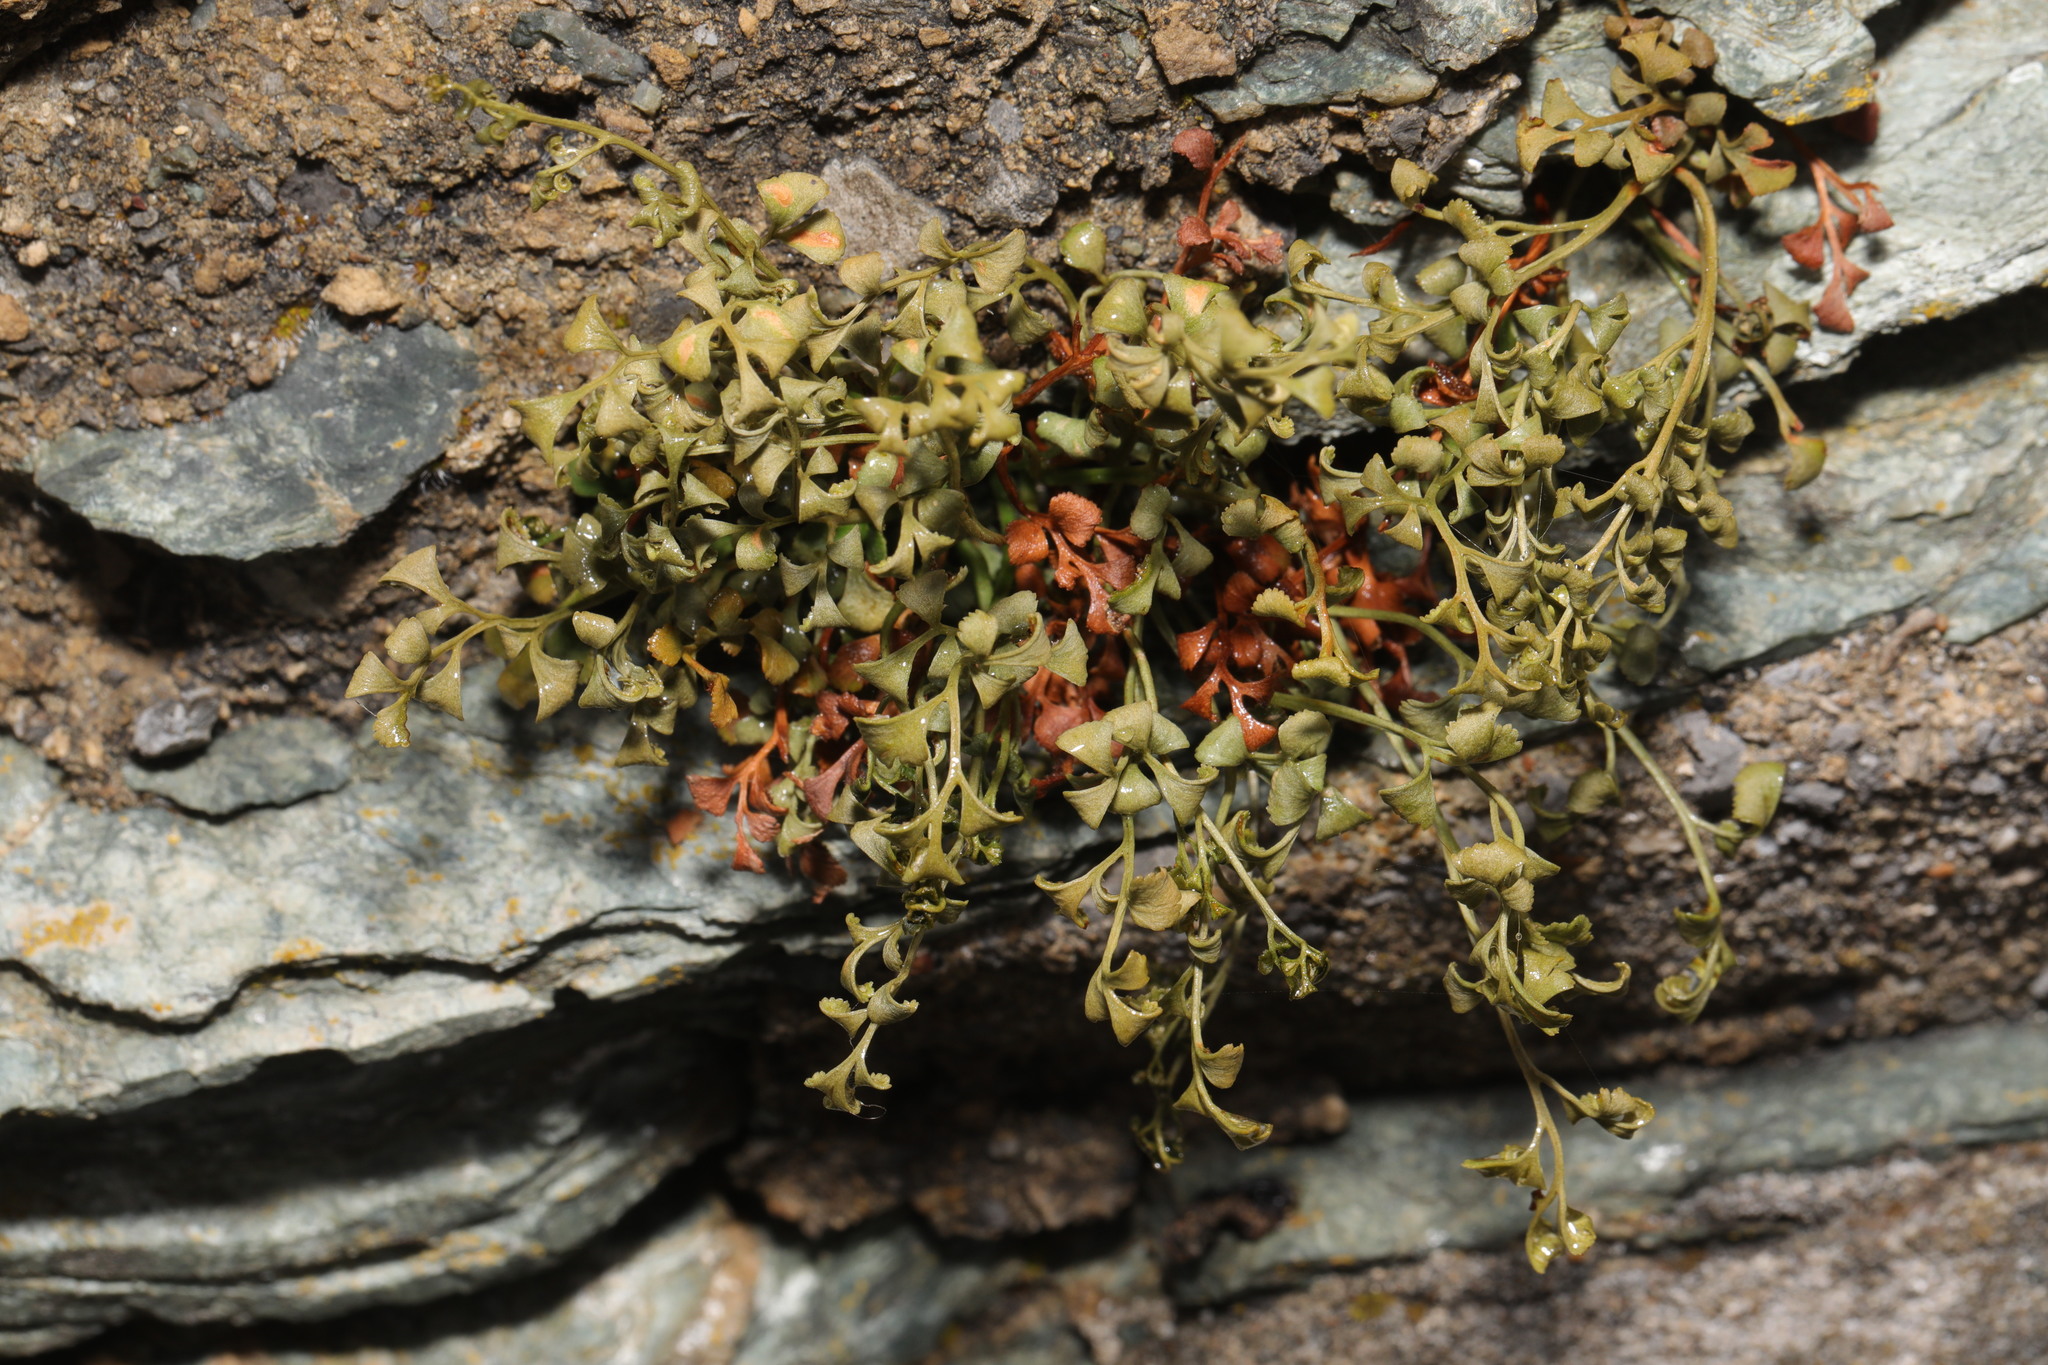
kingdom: Plantae
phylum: Tracheophyta
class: Polypodiopsida
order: Polypodiales
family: Aspleniaceae
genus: Asplenium
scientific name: Asplenium ruta-muraria
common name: Wall-rue
